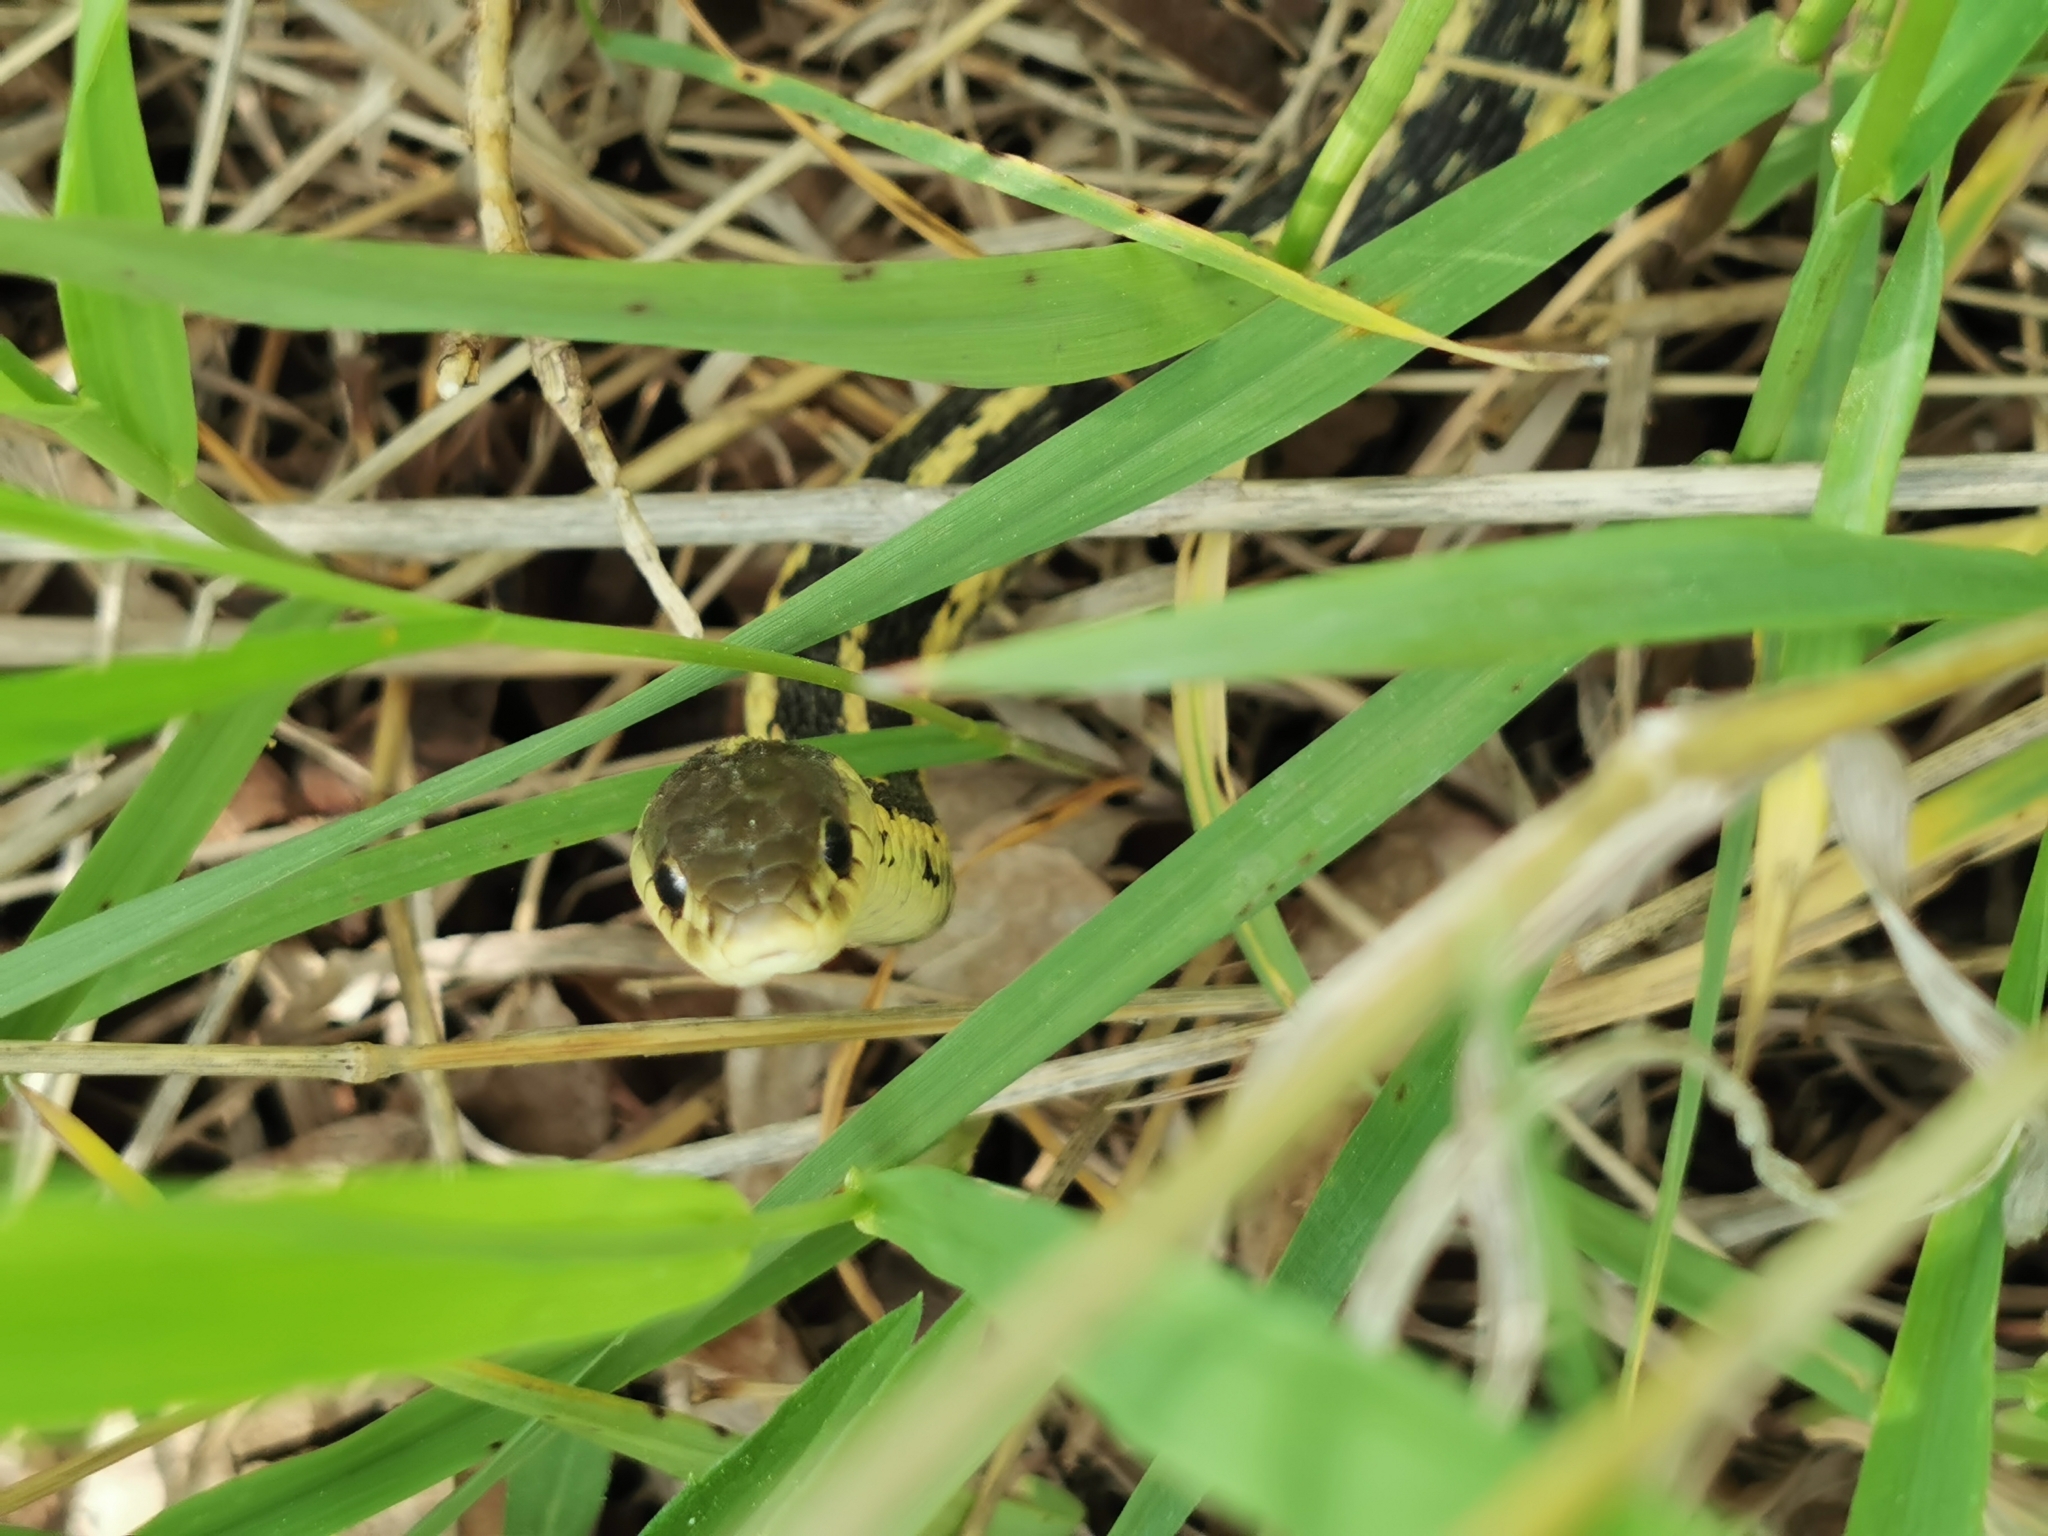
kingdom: Animalia
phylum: Chordata
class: Squamata
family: Colubridae
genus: Thamnophis
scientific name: Thamnophis sirtalis
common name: Common garter snake
